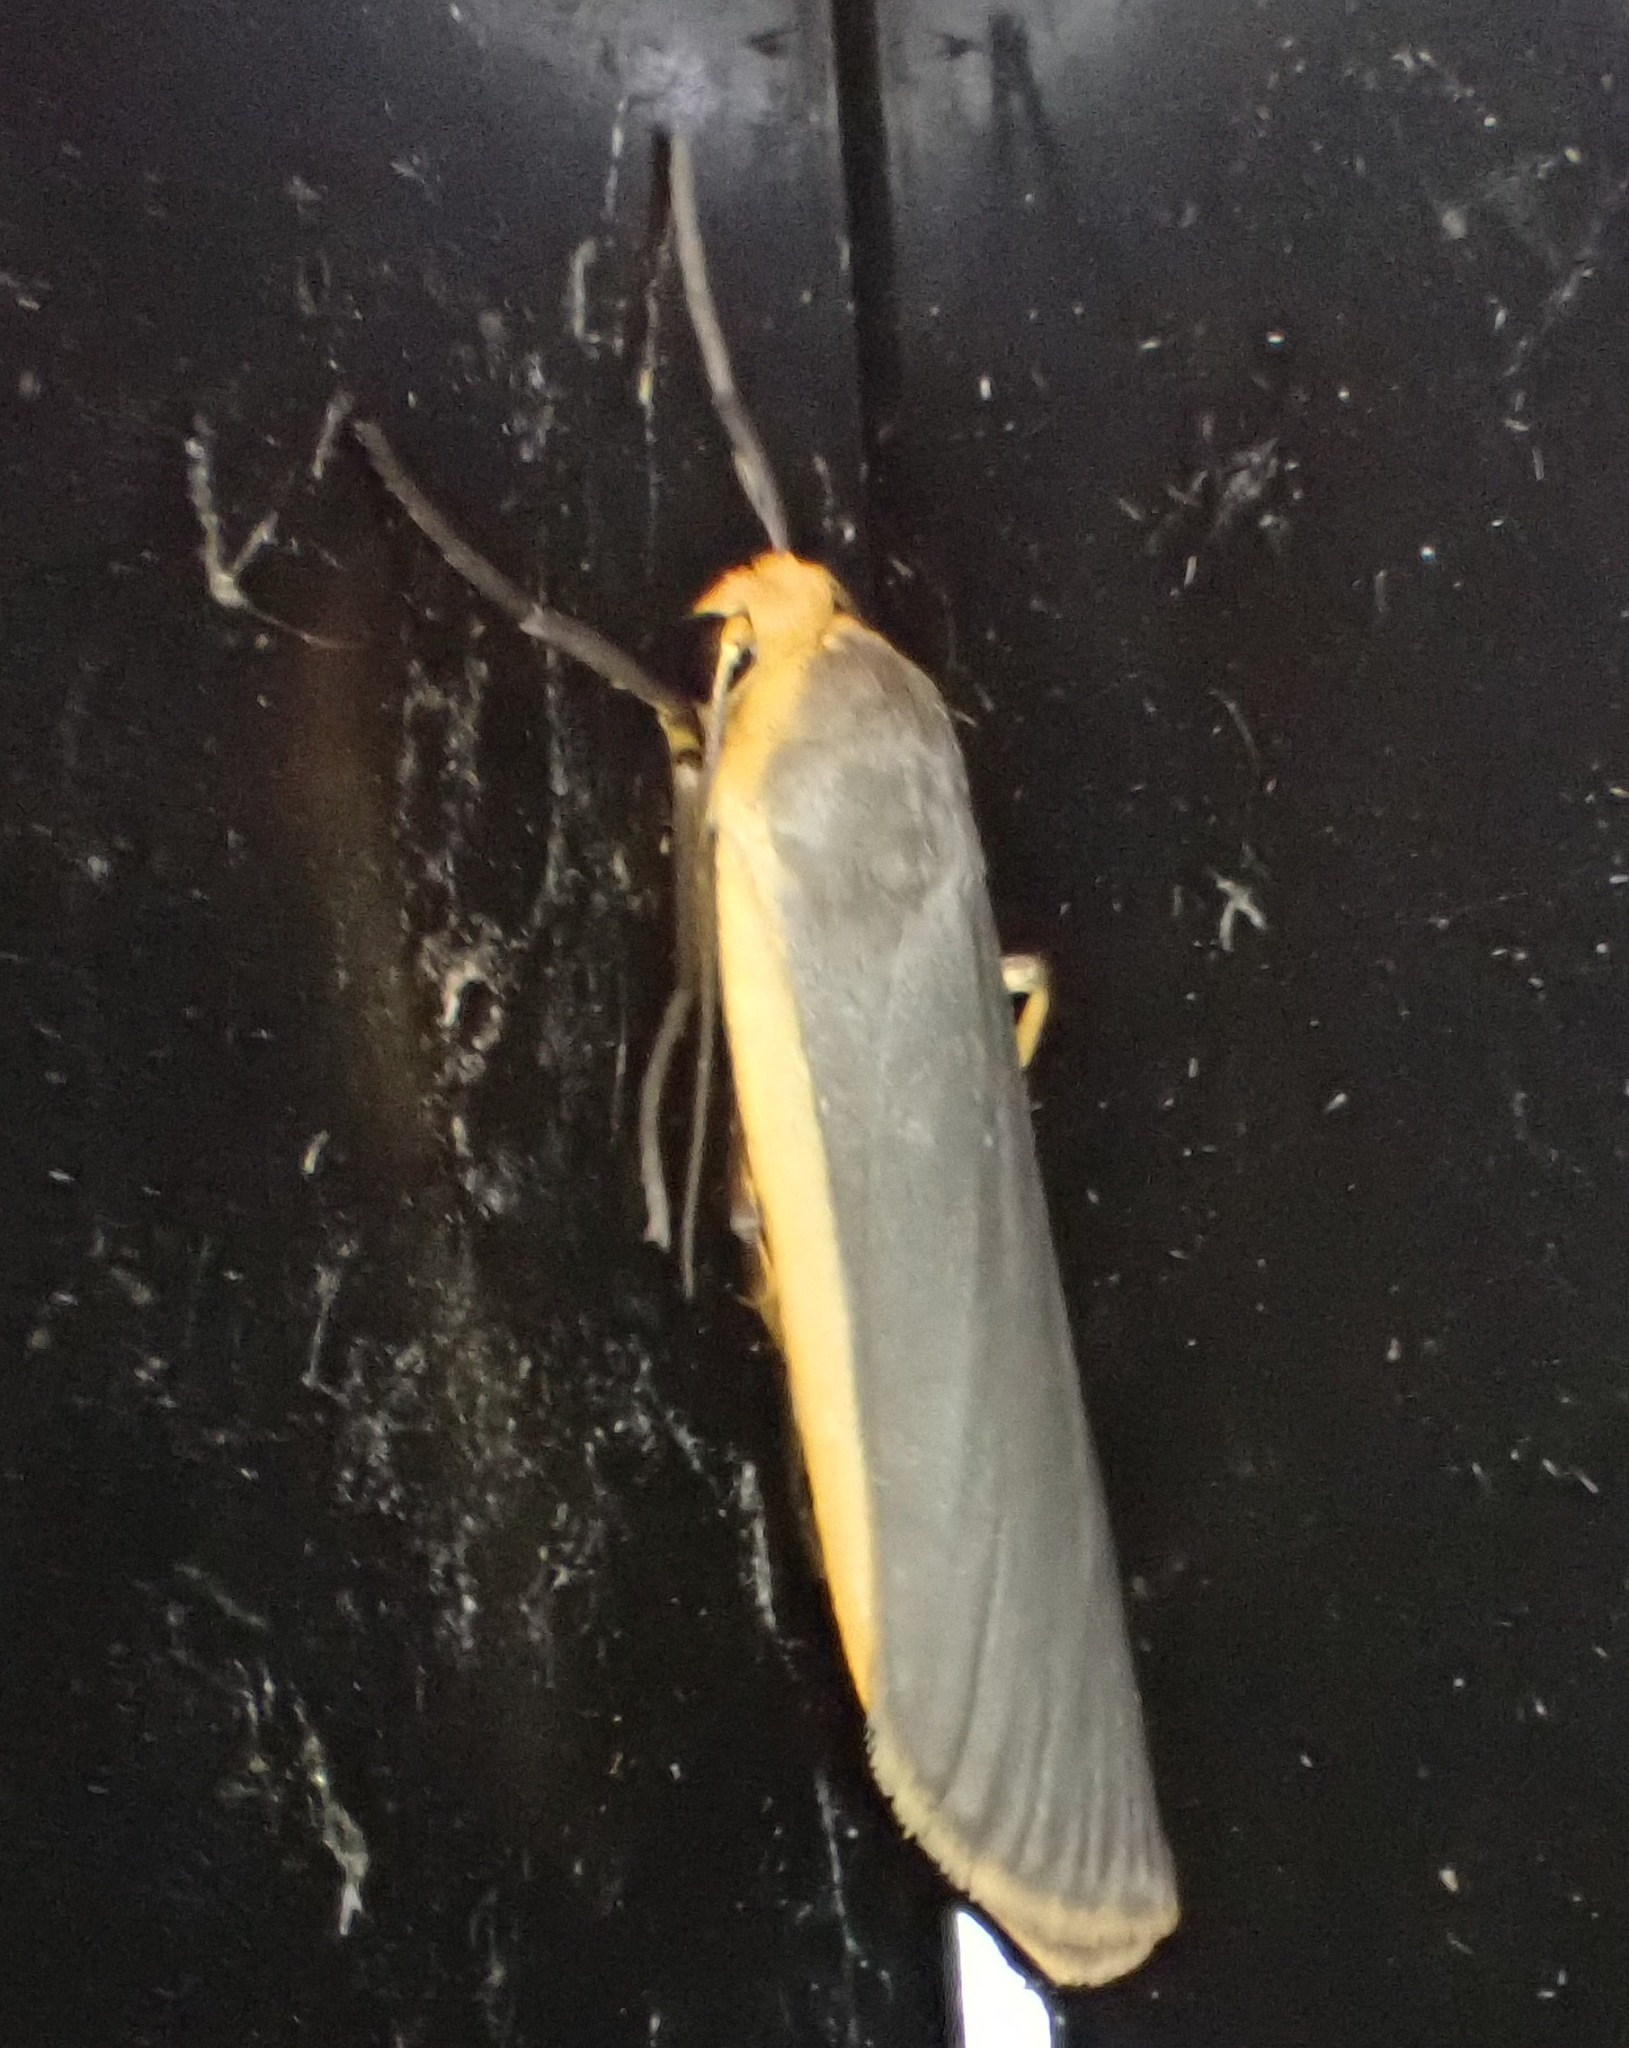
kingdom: Animalia
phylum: Arthropoda
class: Insecta
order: Lepidoptera
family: Erebidae
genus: Nyea
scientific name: Nyea lurideola
